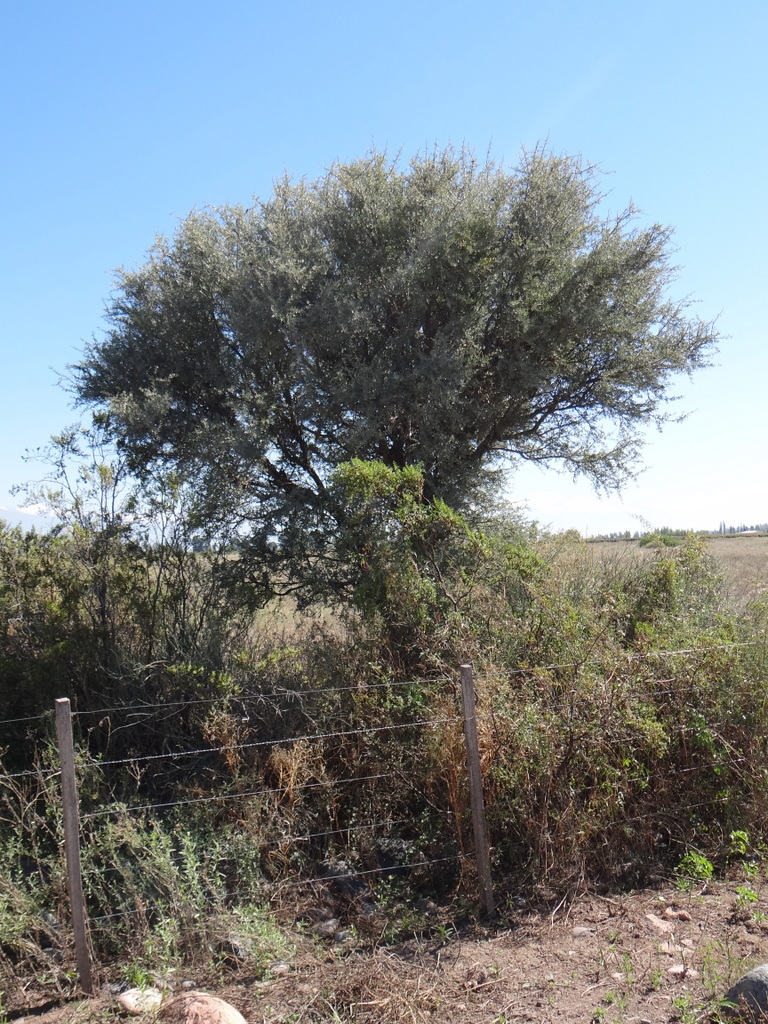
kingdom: Plantae
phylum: Tracheophyta
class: Magnoliopsida
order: Fabales
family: Fabaceae
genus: Geoffroea
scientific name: Geoffroea decorticans
